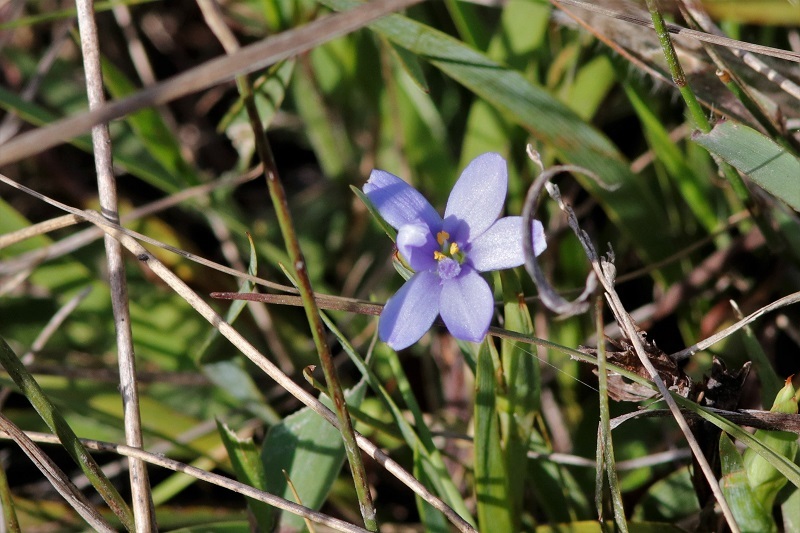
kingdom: Plantae
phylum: Tracheophyta
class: Liliopsida
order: Asparagales
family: Iridaceae
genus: Aristea
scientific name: Aristea pusilla
